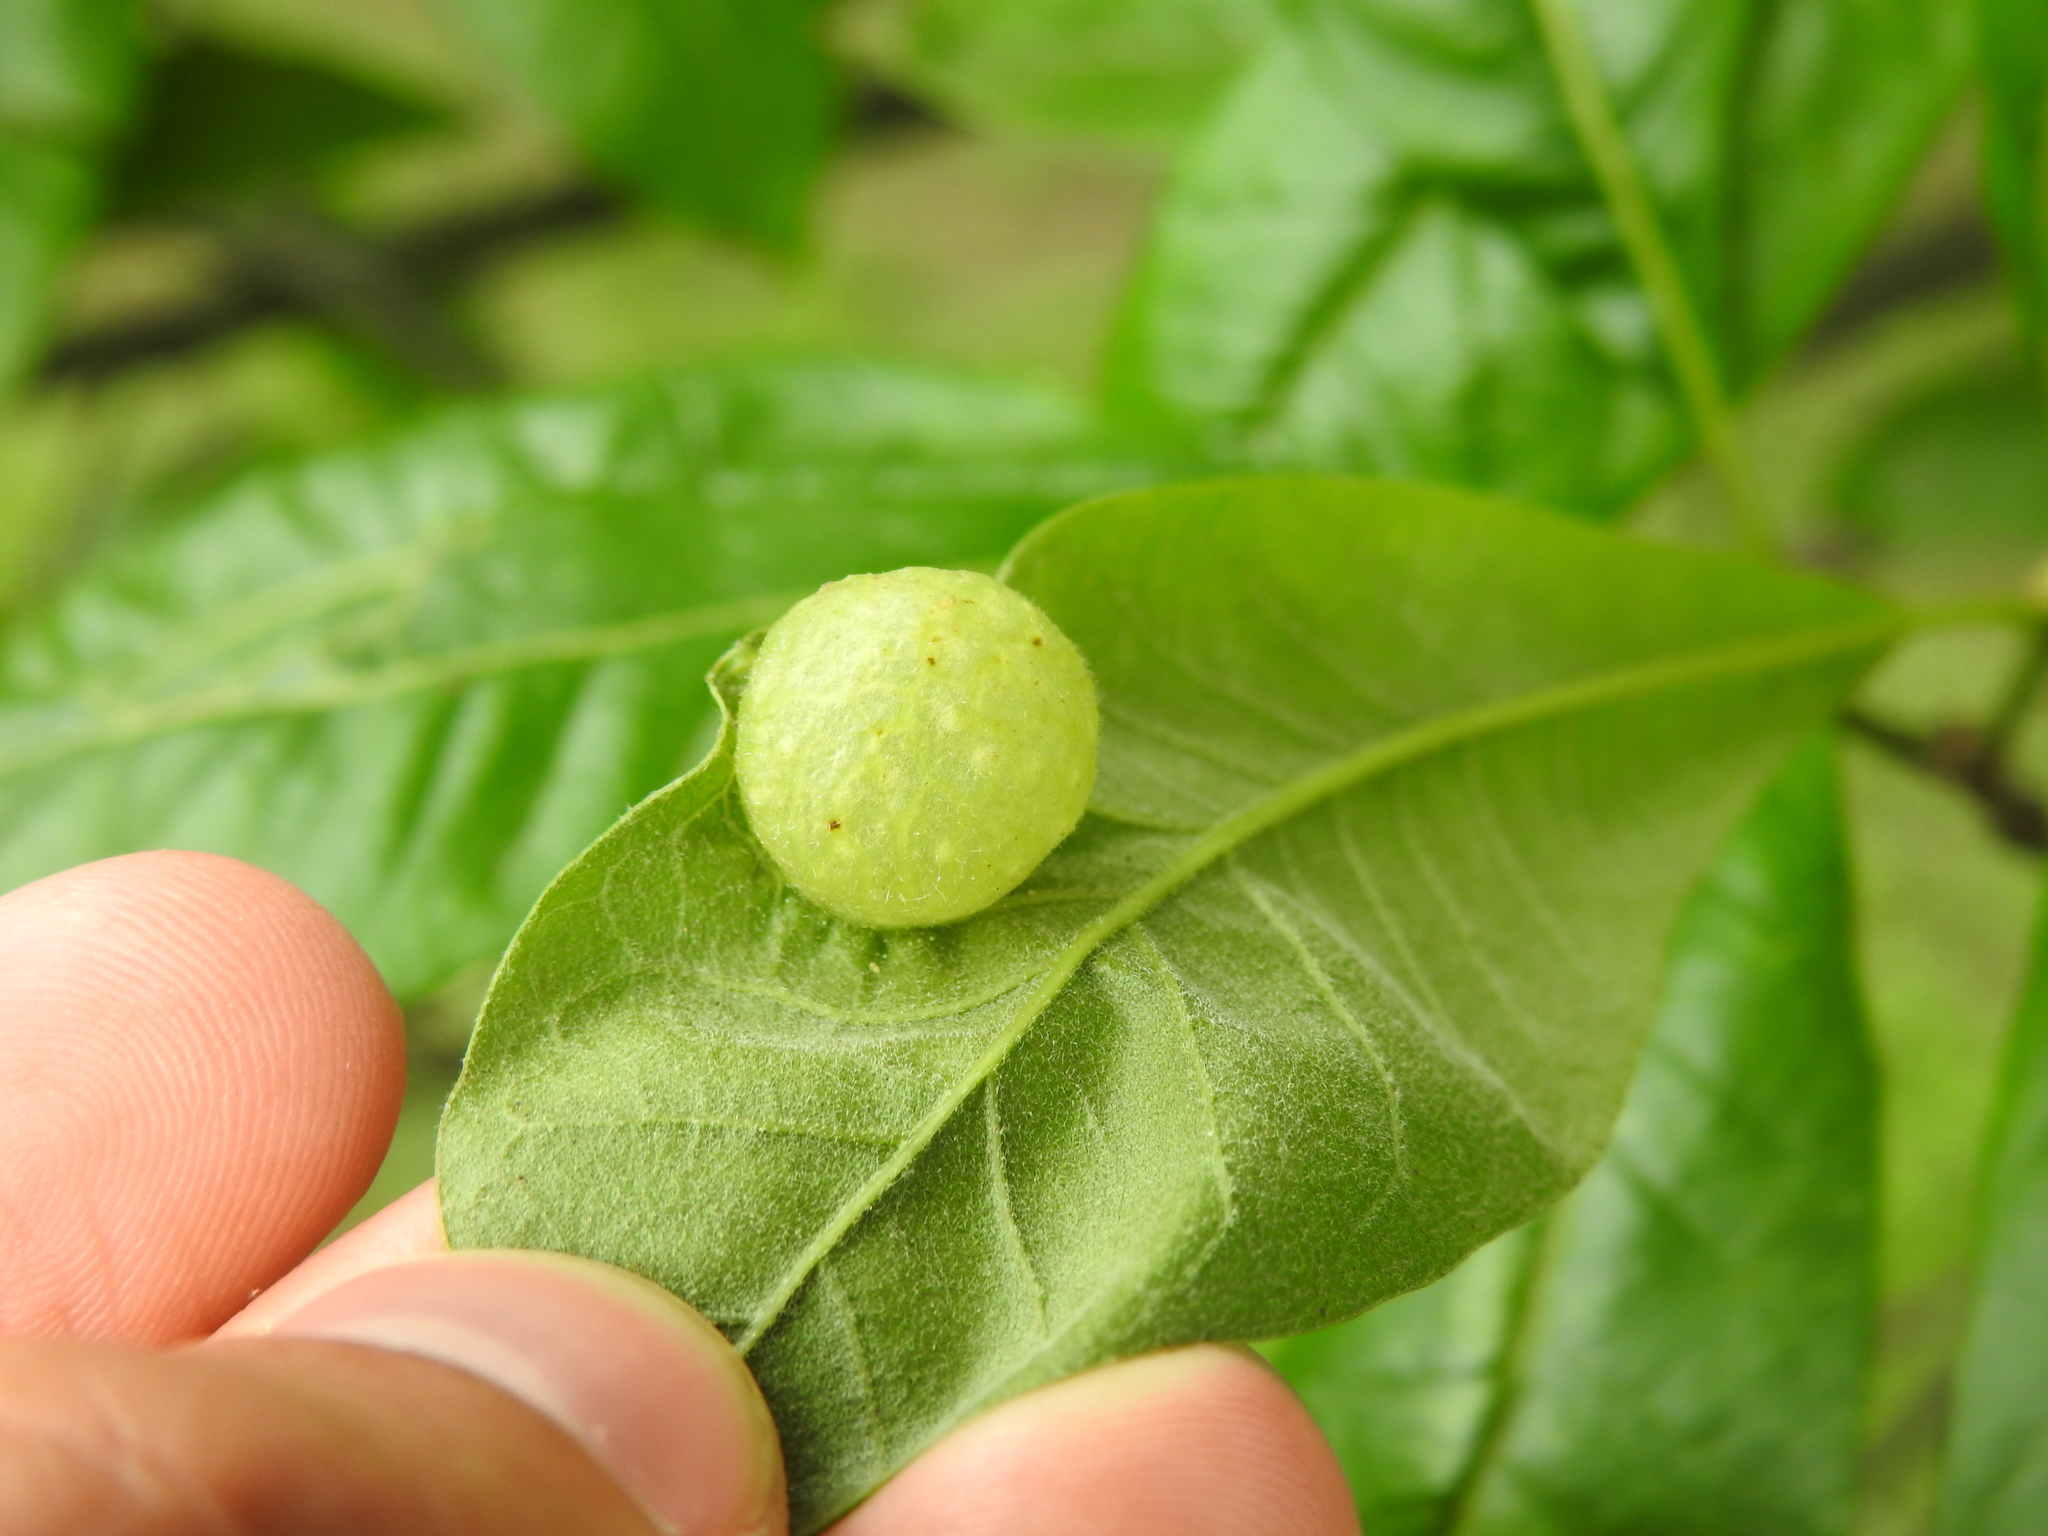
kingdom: Animalia
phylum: Arthropoda
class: Insecta
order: Hymenoptera
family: Cynipidae
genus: Amphibolips
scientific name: Amphibolips
